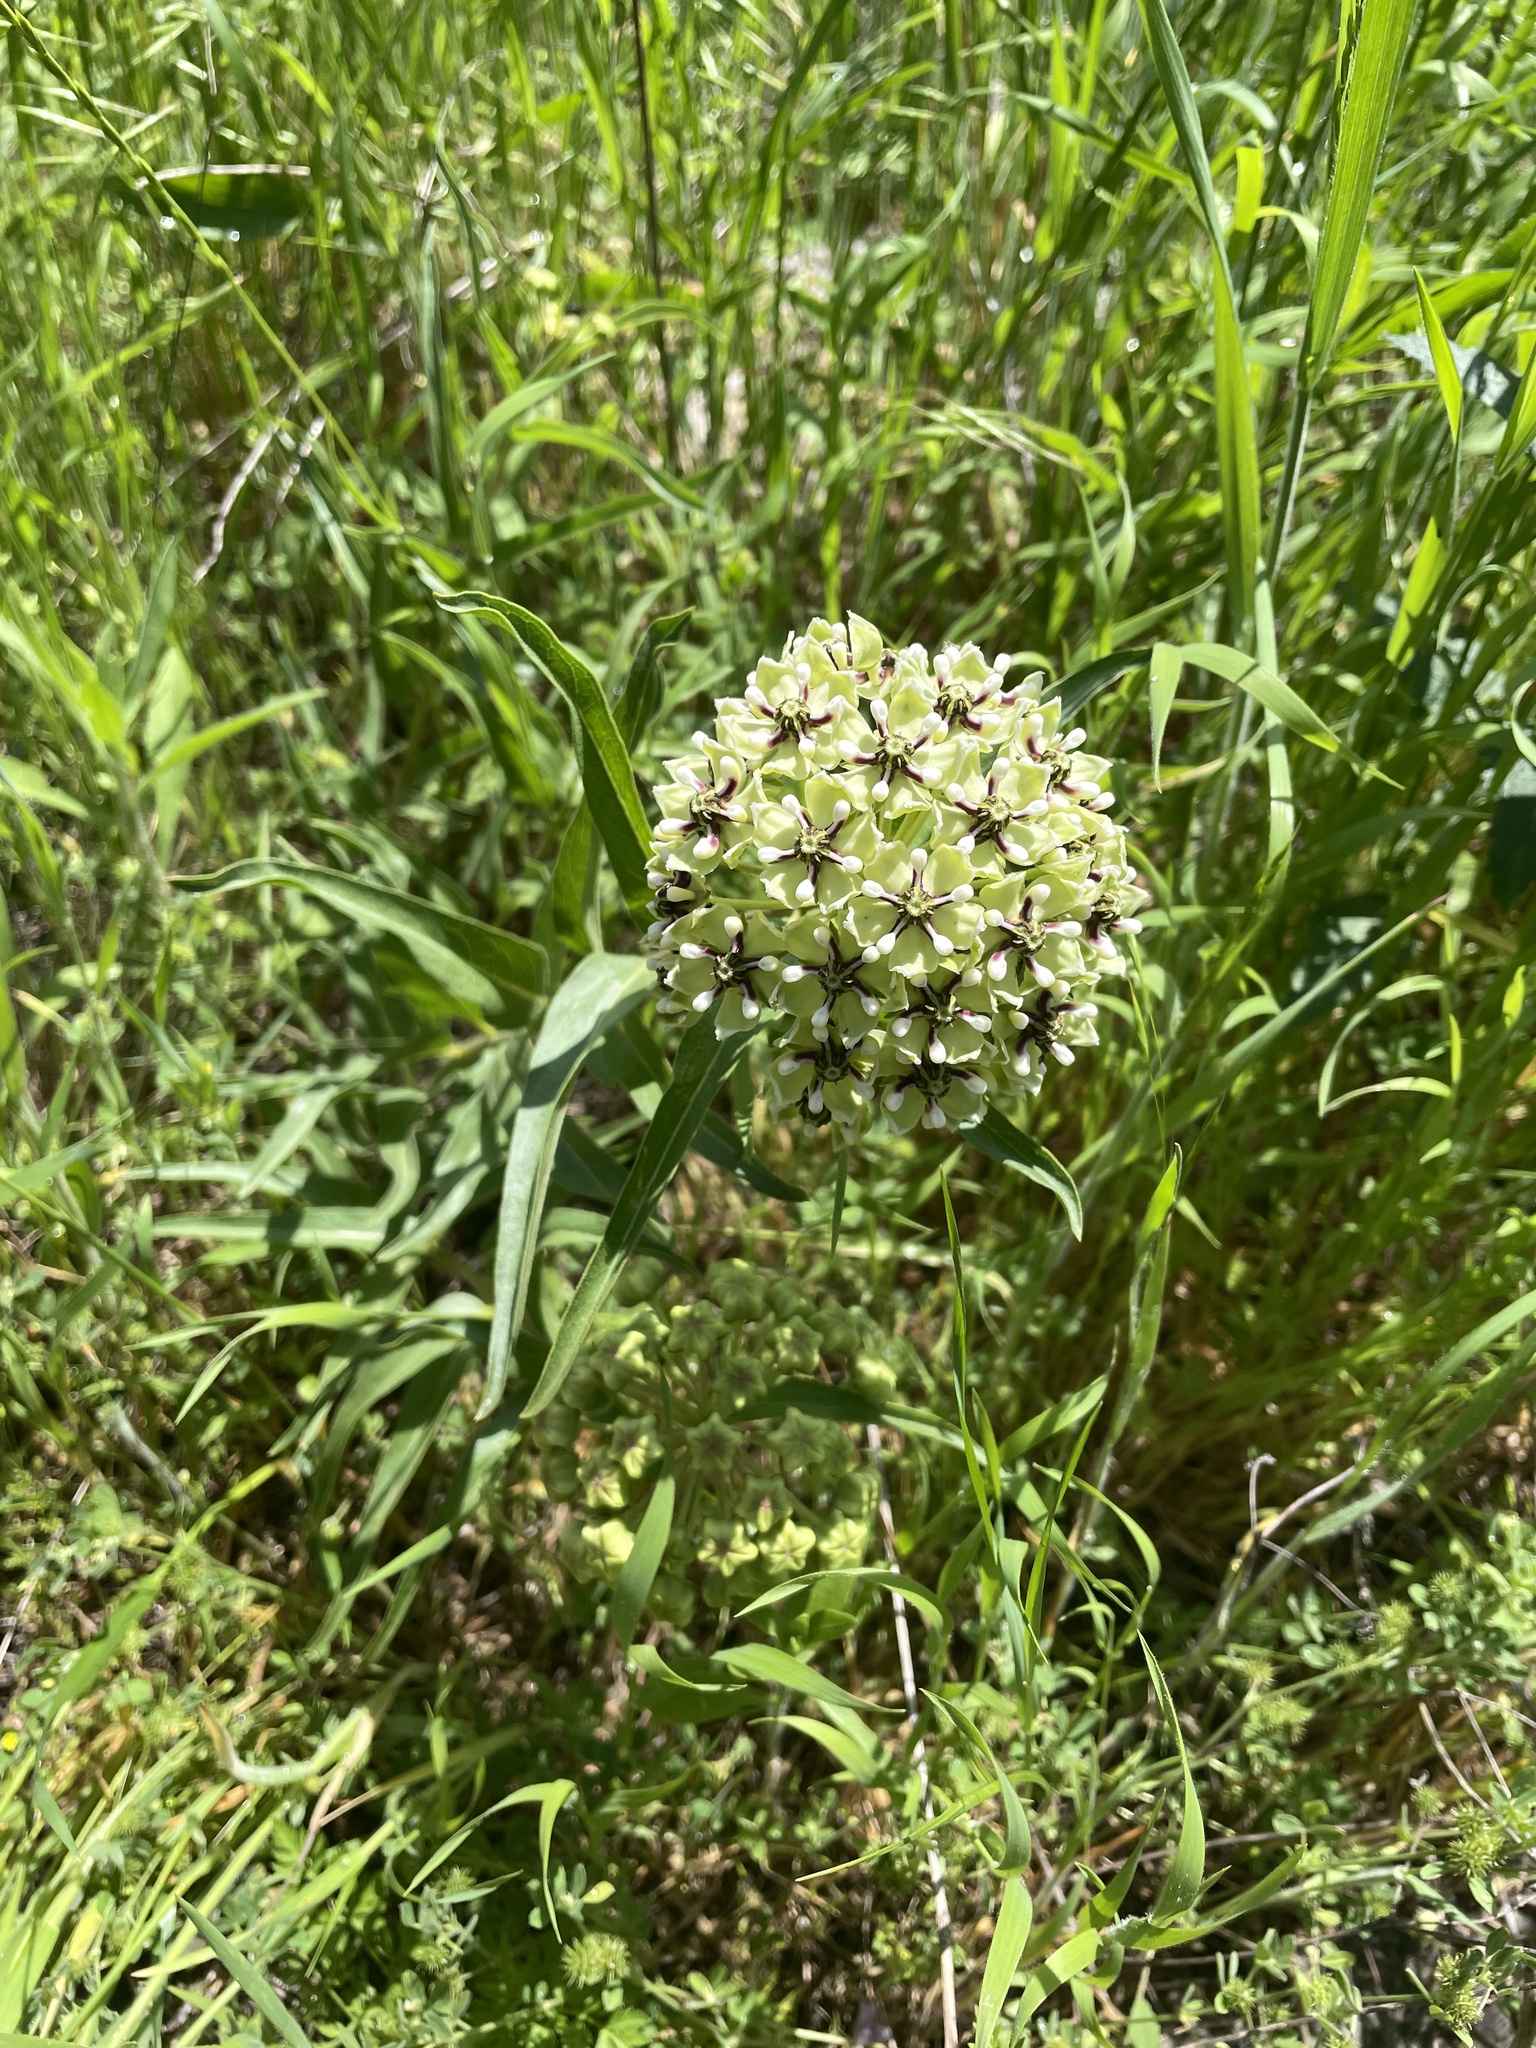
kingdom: Plantae
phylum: Tracheophyta
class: Magnoliopsida
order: Gentianales
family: Apocynaceae
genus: Asclepias
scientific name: Asclepias asperula
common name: Antelope horns
